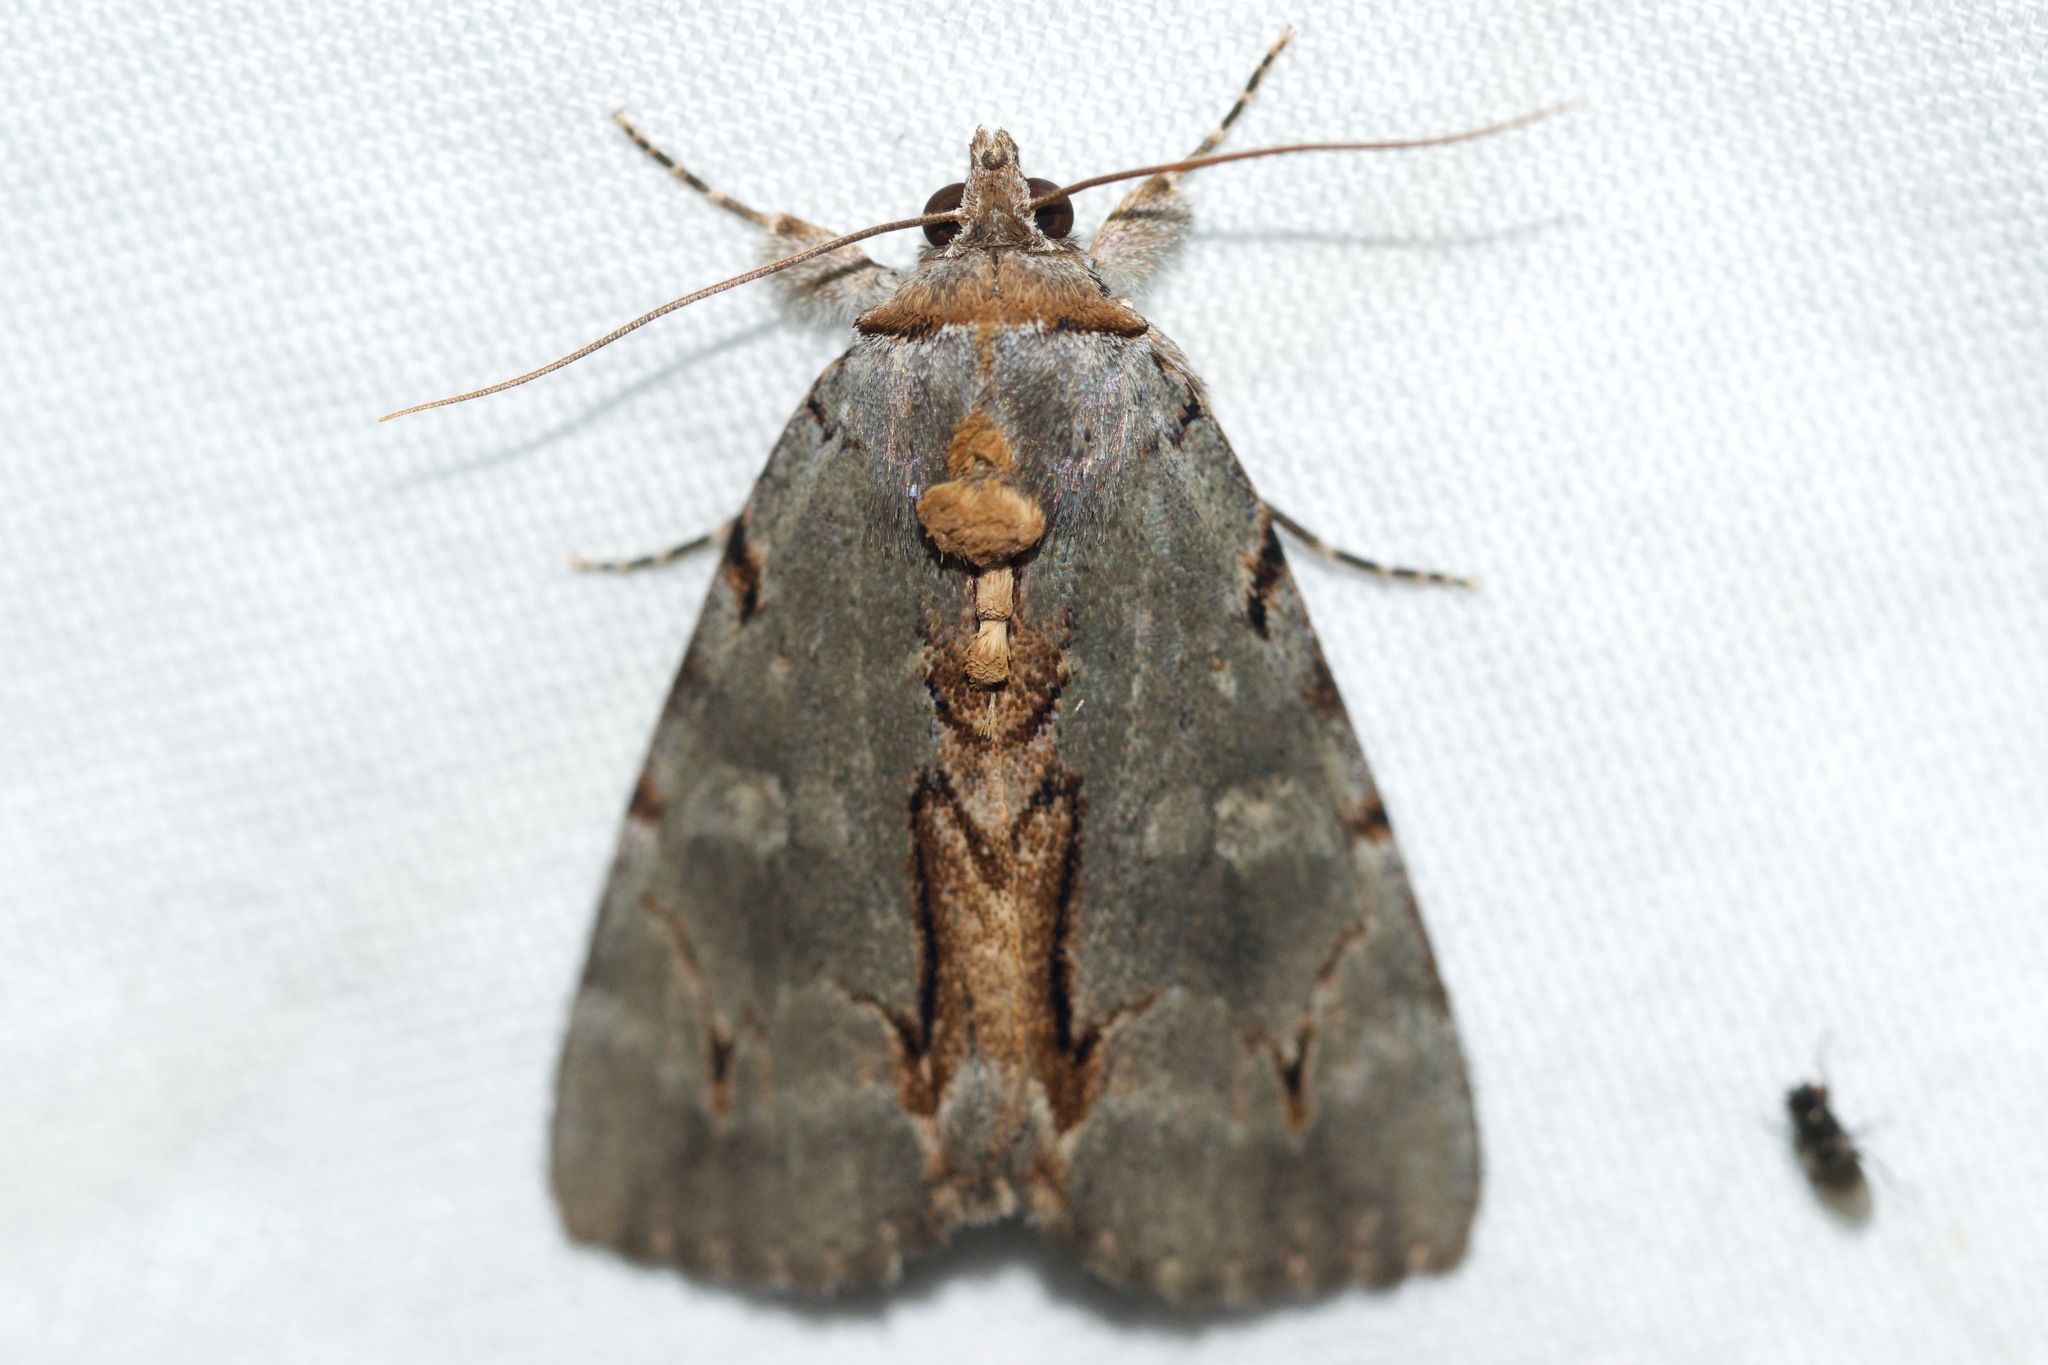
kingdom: Animalia
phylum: Arthropoda
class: Insecta
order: Lepidoptera
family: Erebidae
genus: Catocala
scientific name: Catocala grynea
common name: Woody underwing
